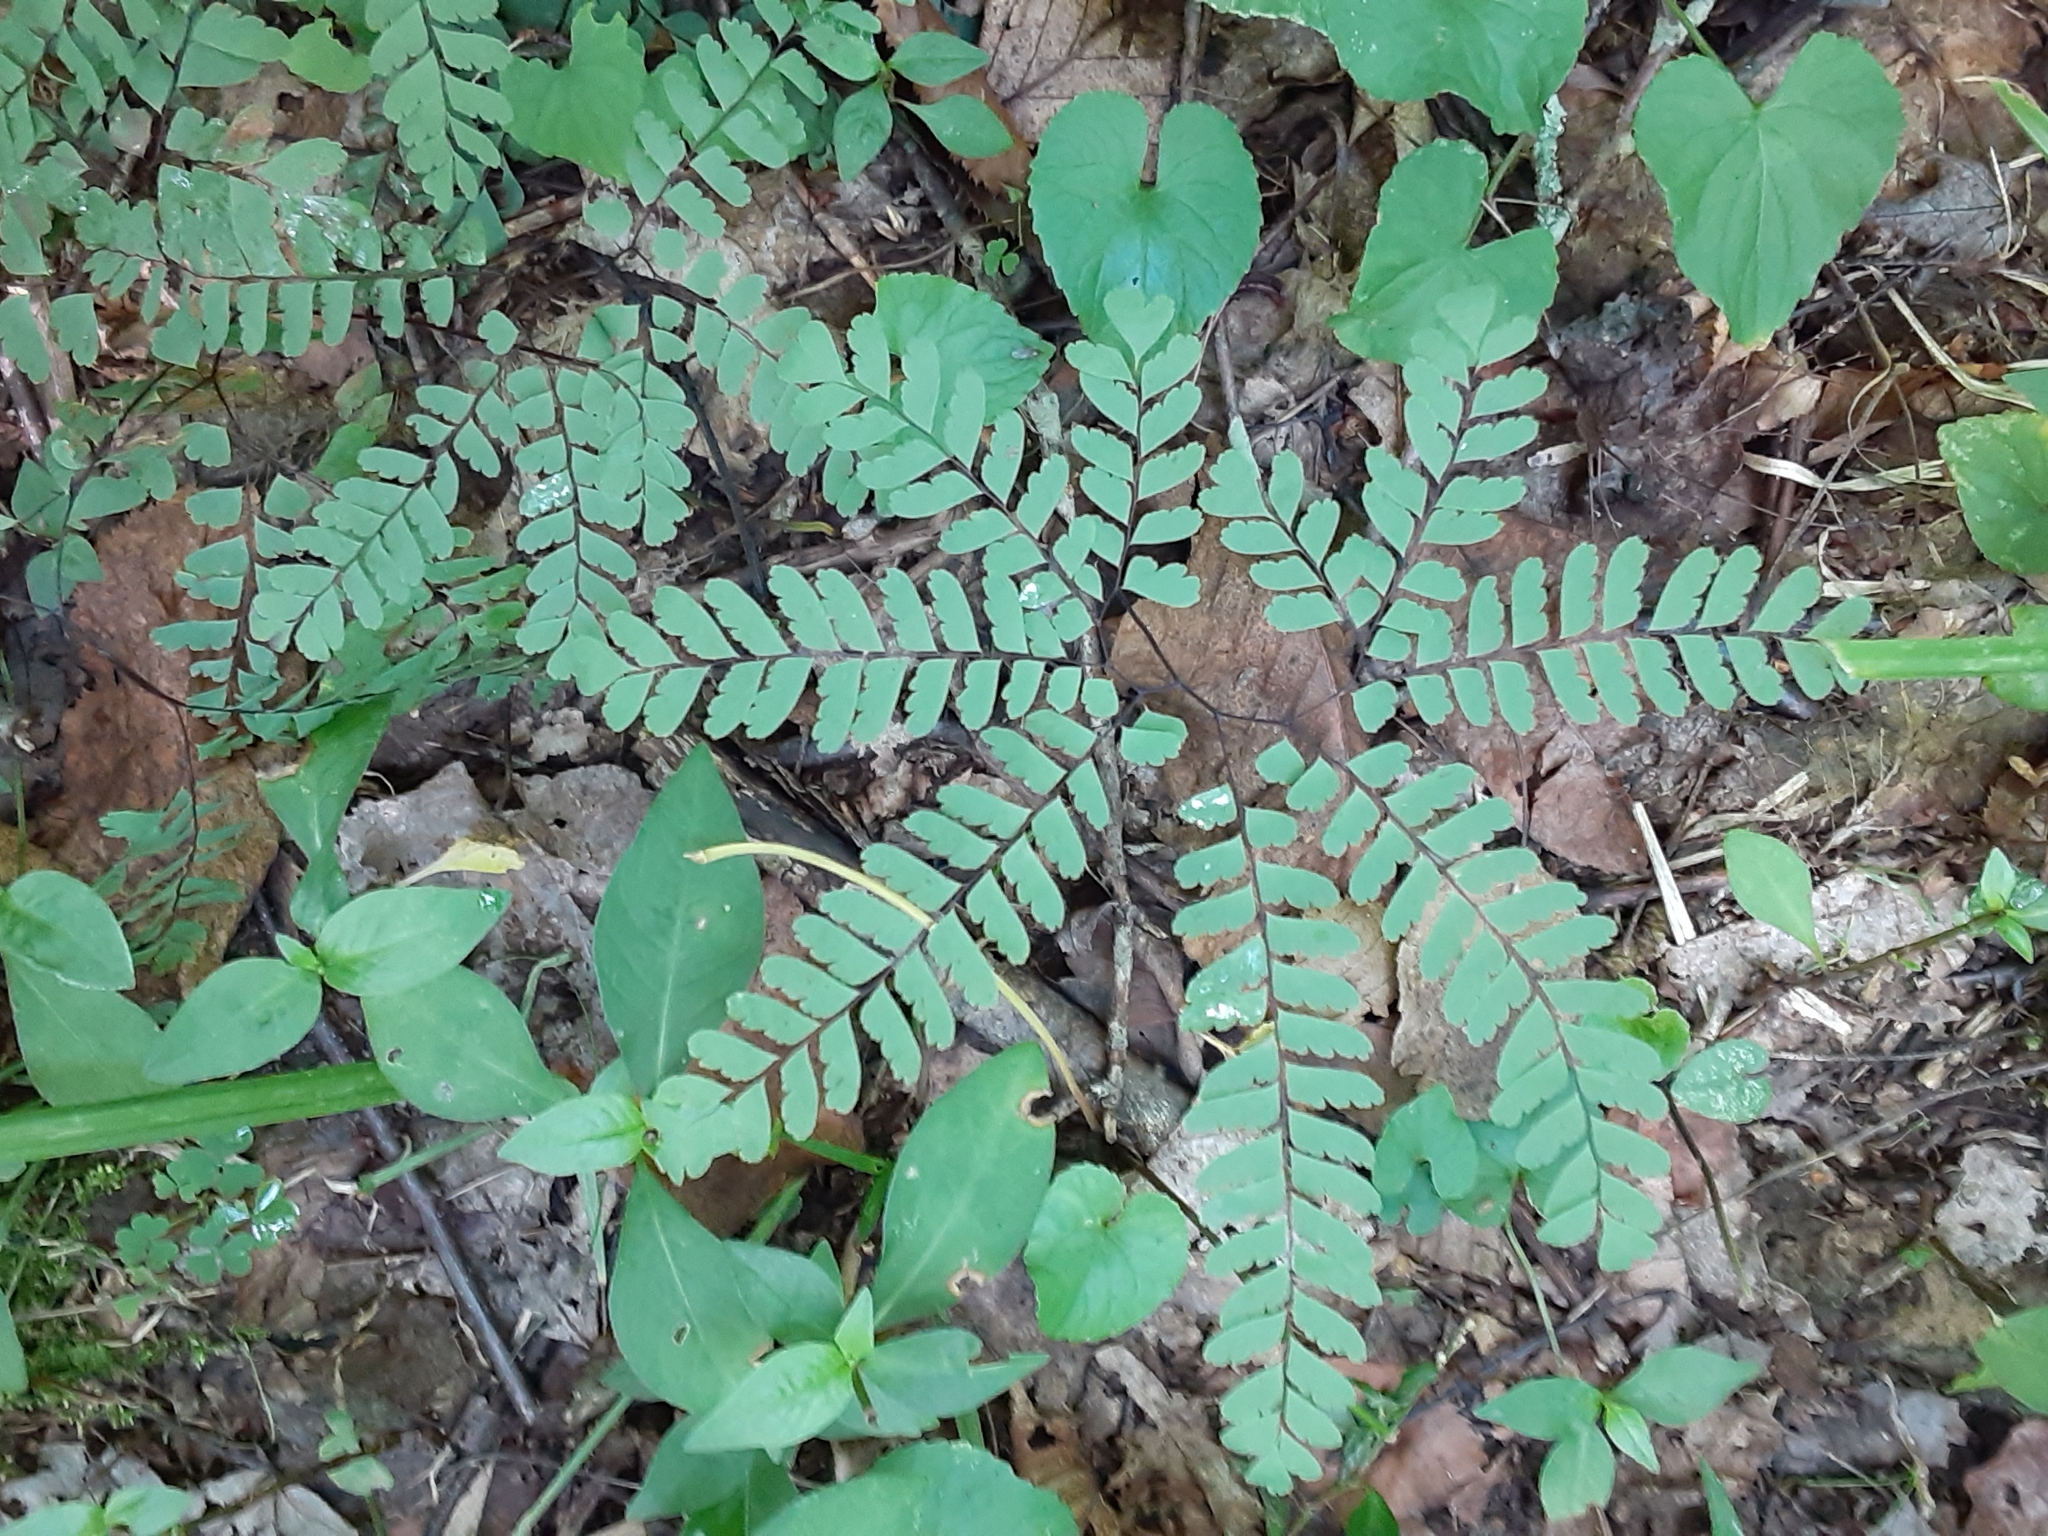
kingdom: Plantae
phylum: Tracheophyta
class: Polypodiopsida
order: Polypodiales
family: Pteridaceae
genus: Adiantum
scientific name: Adiantum pedatum
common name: Five-finger fern
